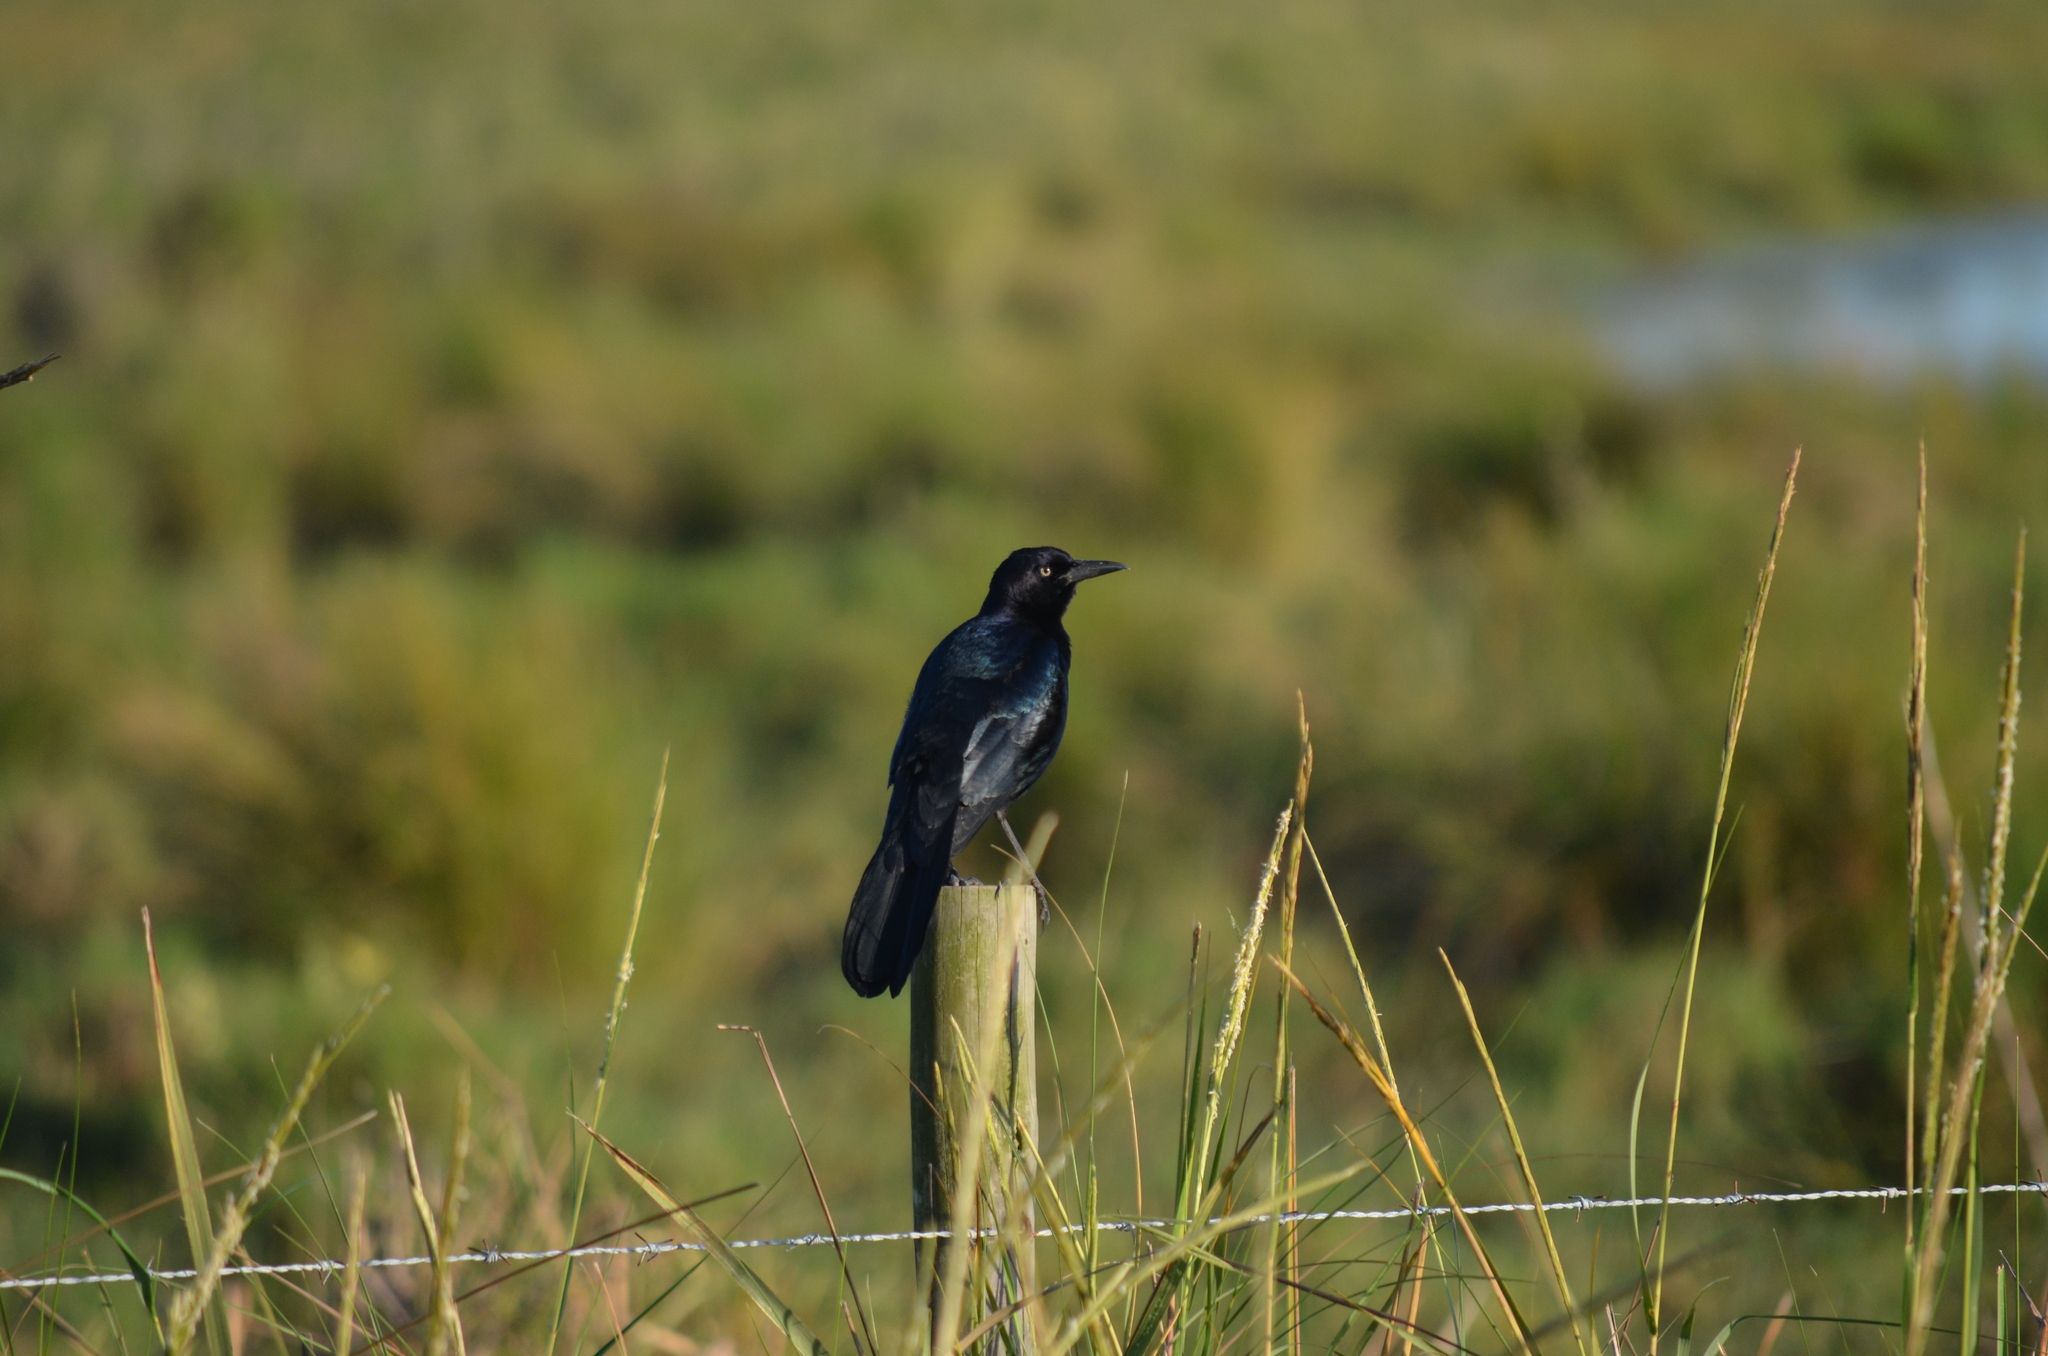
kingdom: Animalia
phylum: Chordata
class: Aves
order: Passeriformes
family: Icteridae
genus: Quiscalus
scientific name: Quiscalus mexicanus
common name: Great-tailed grackle
